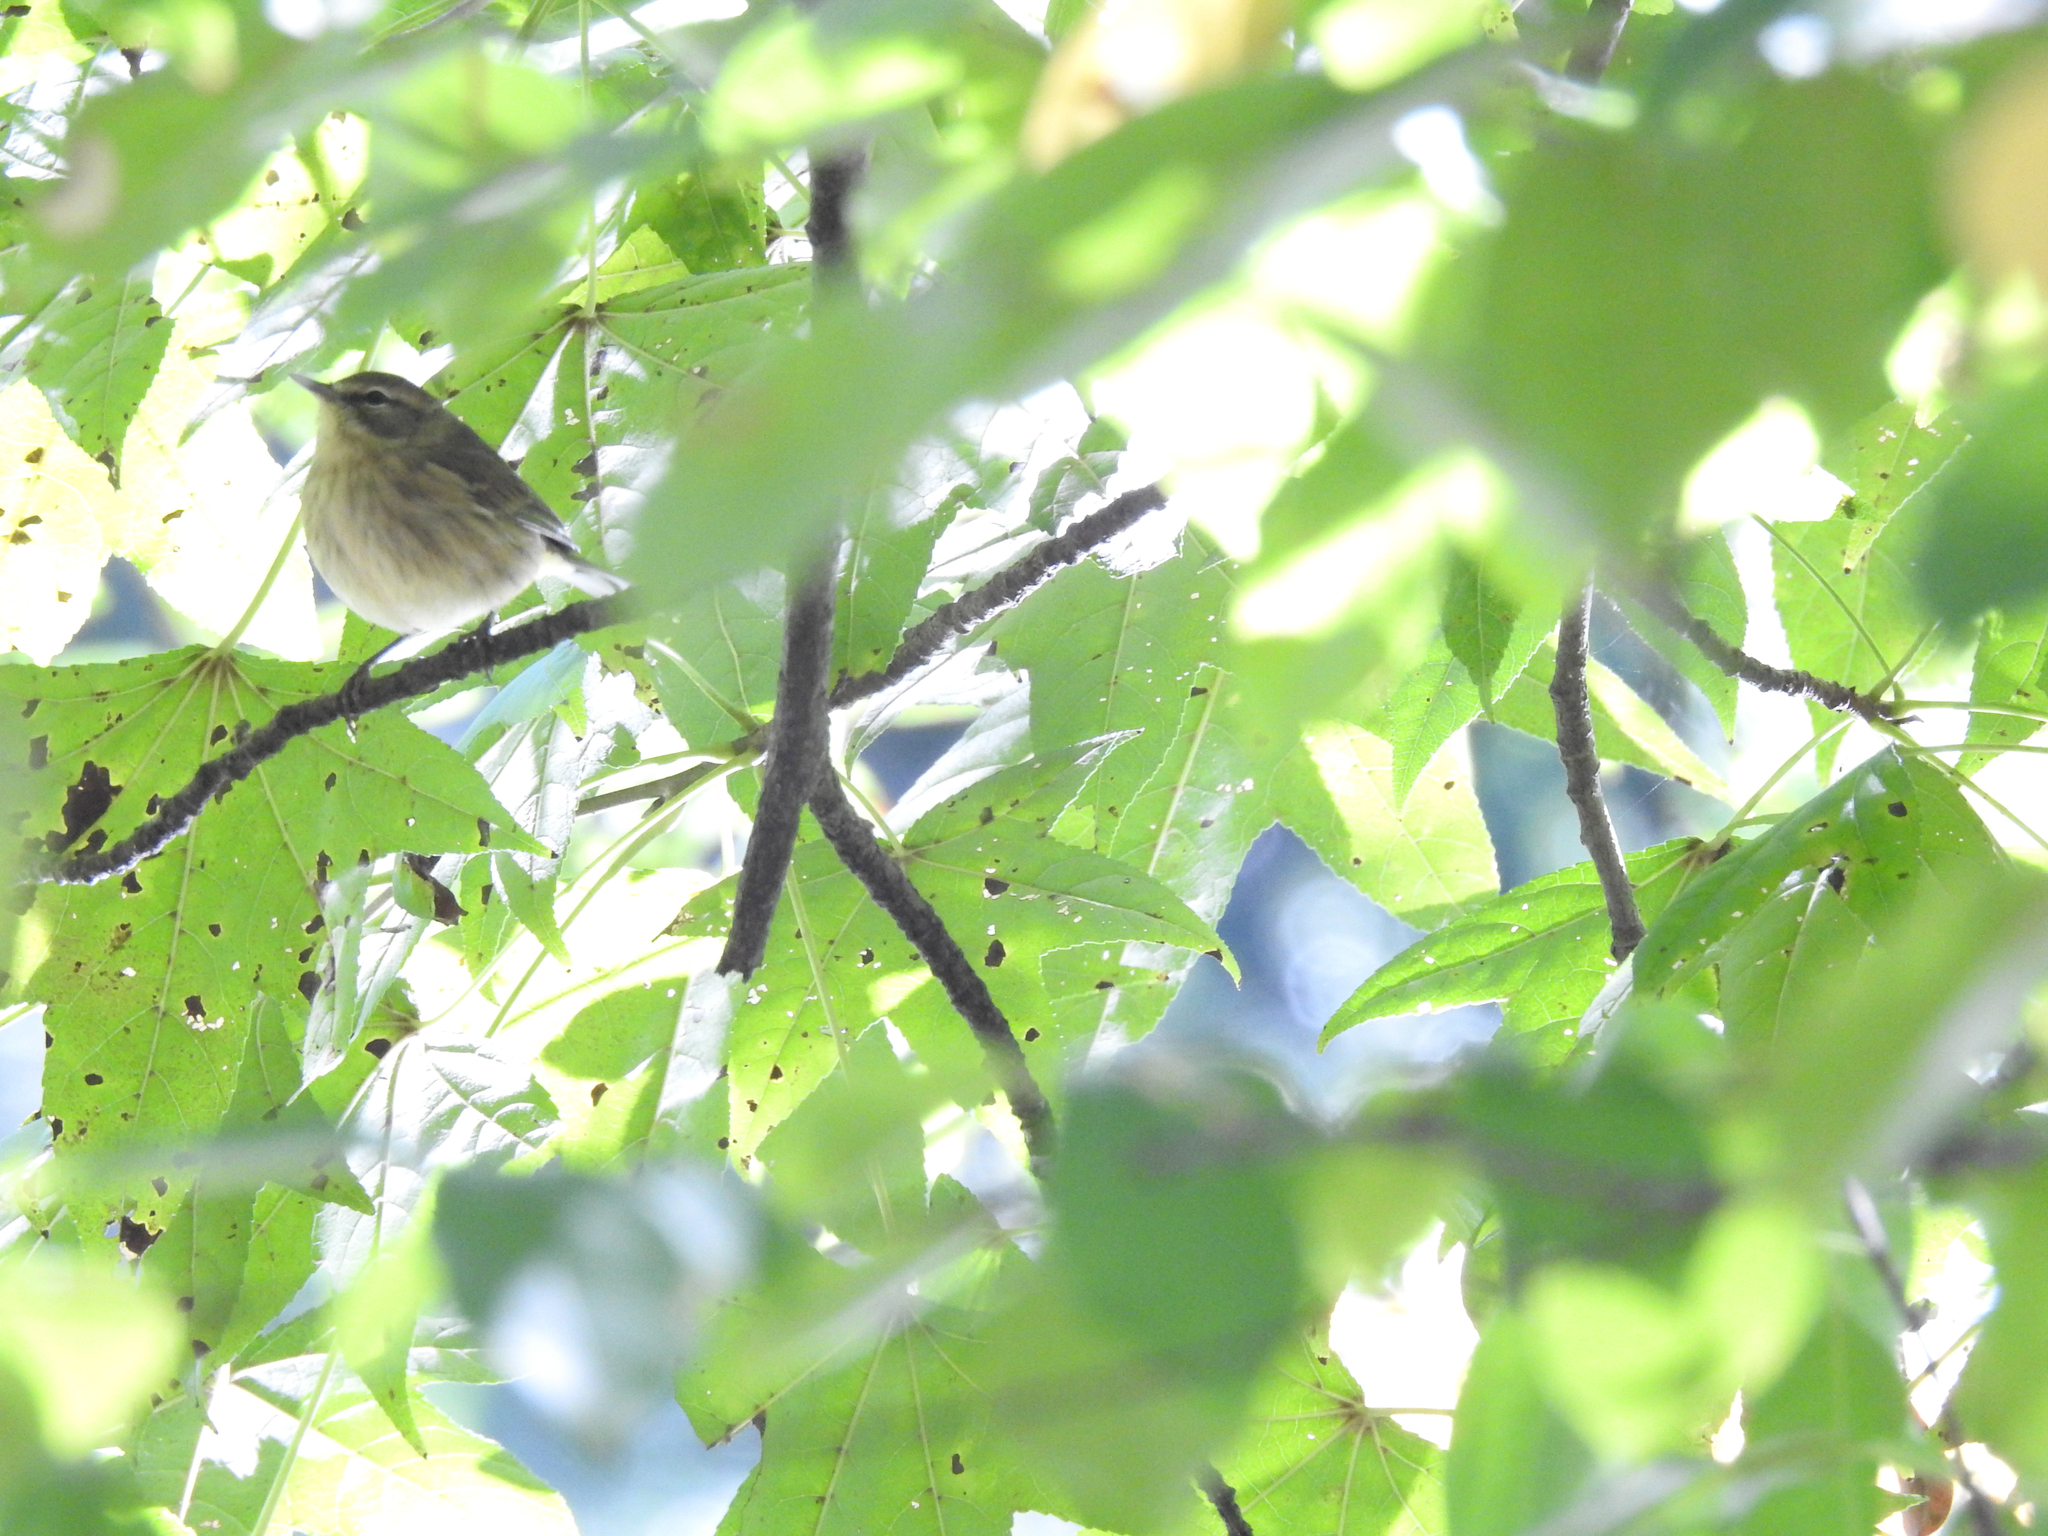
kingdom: Animalia
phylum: Chordata
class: Aves
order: Passeriformes
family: Parulidae
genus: Setophaga
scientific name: Setophaga palmarum
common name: Palm warbler
